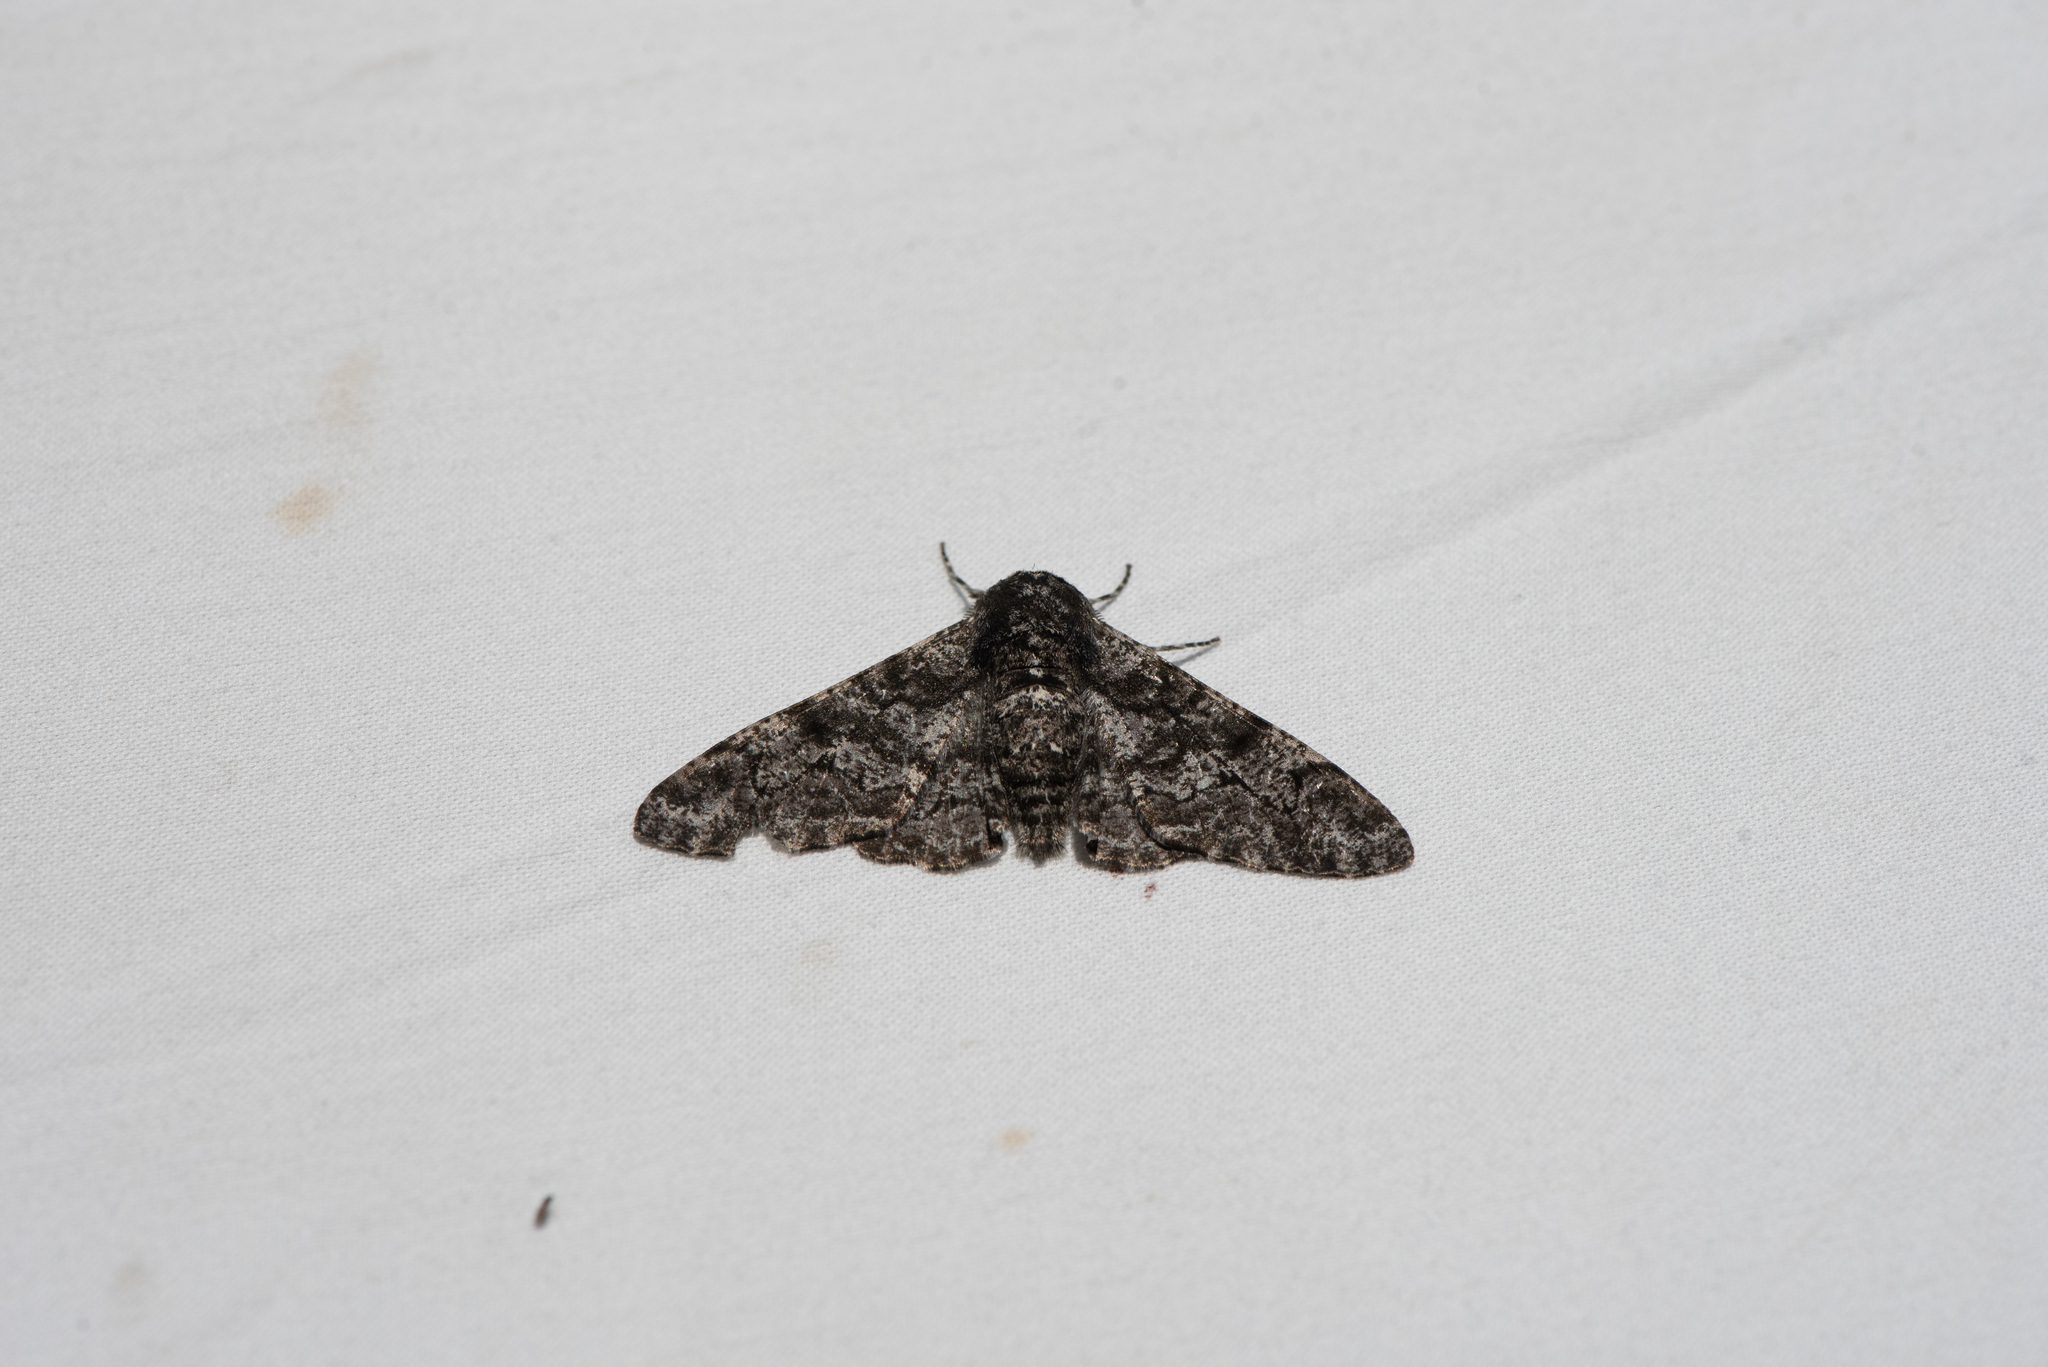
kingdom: Animalia
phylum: Arthropoda
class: Insecta
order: Lepidoptera
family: Geometridae
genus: Biston
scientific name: Biston betularia
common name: Peppered moth
